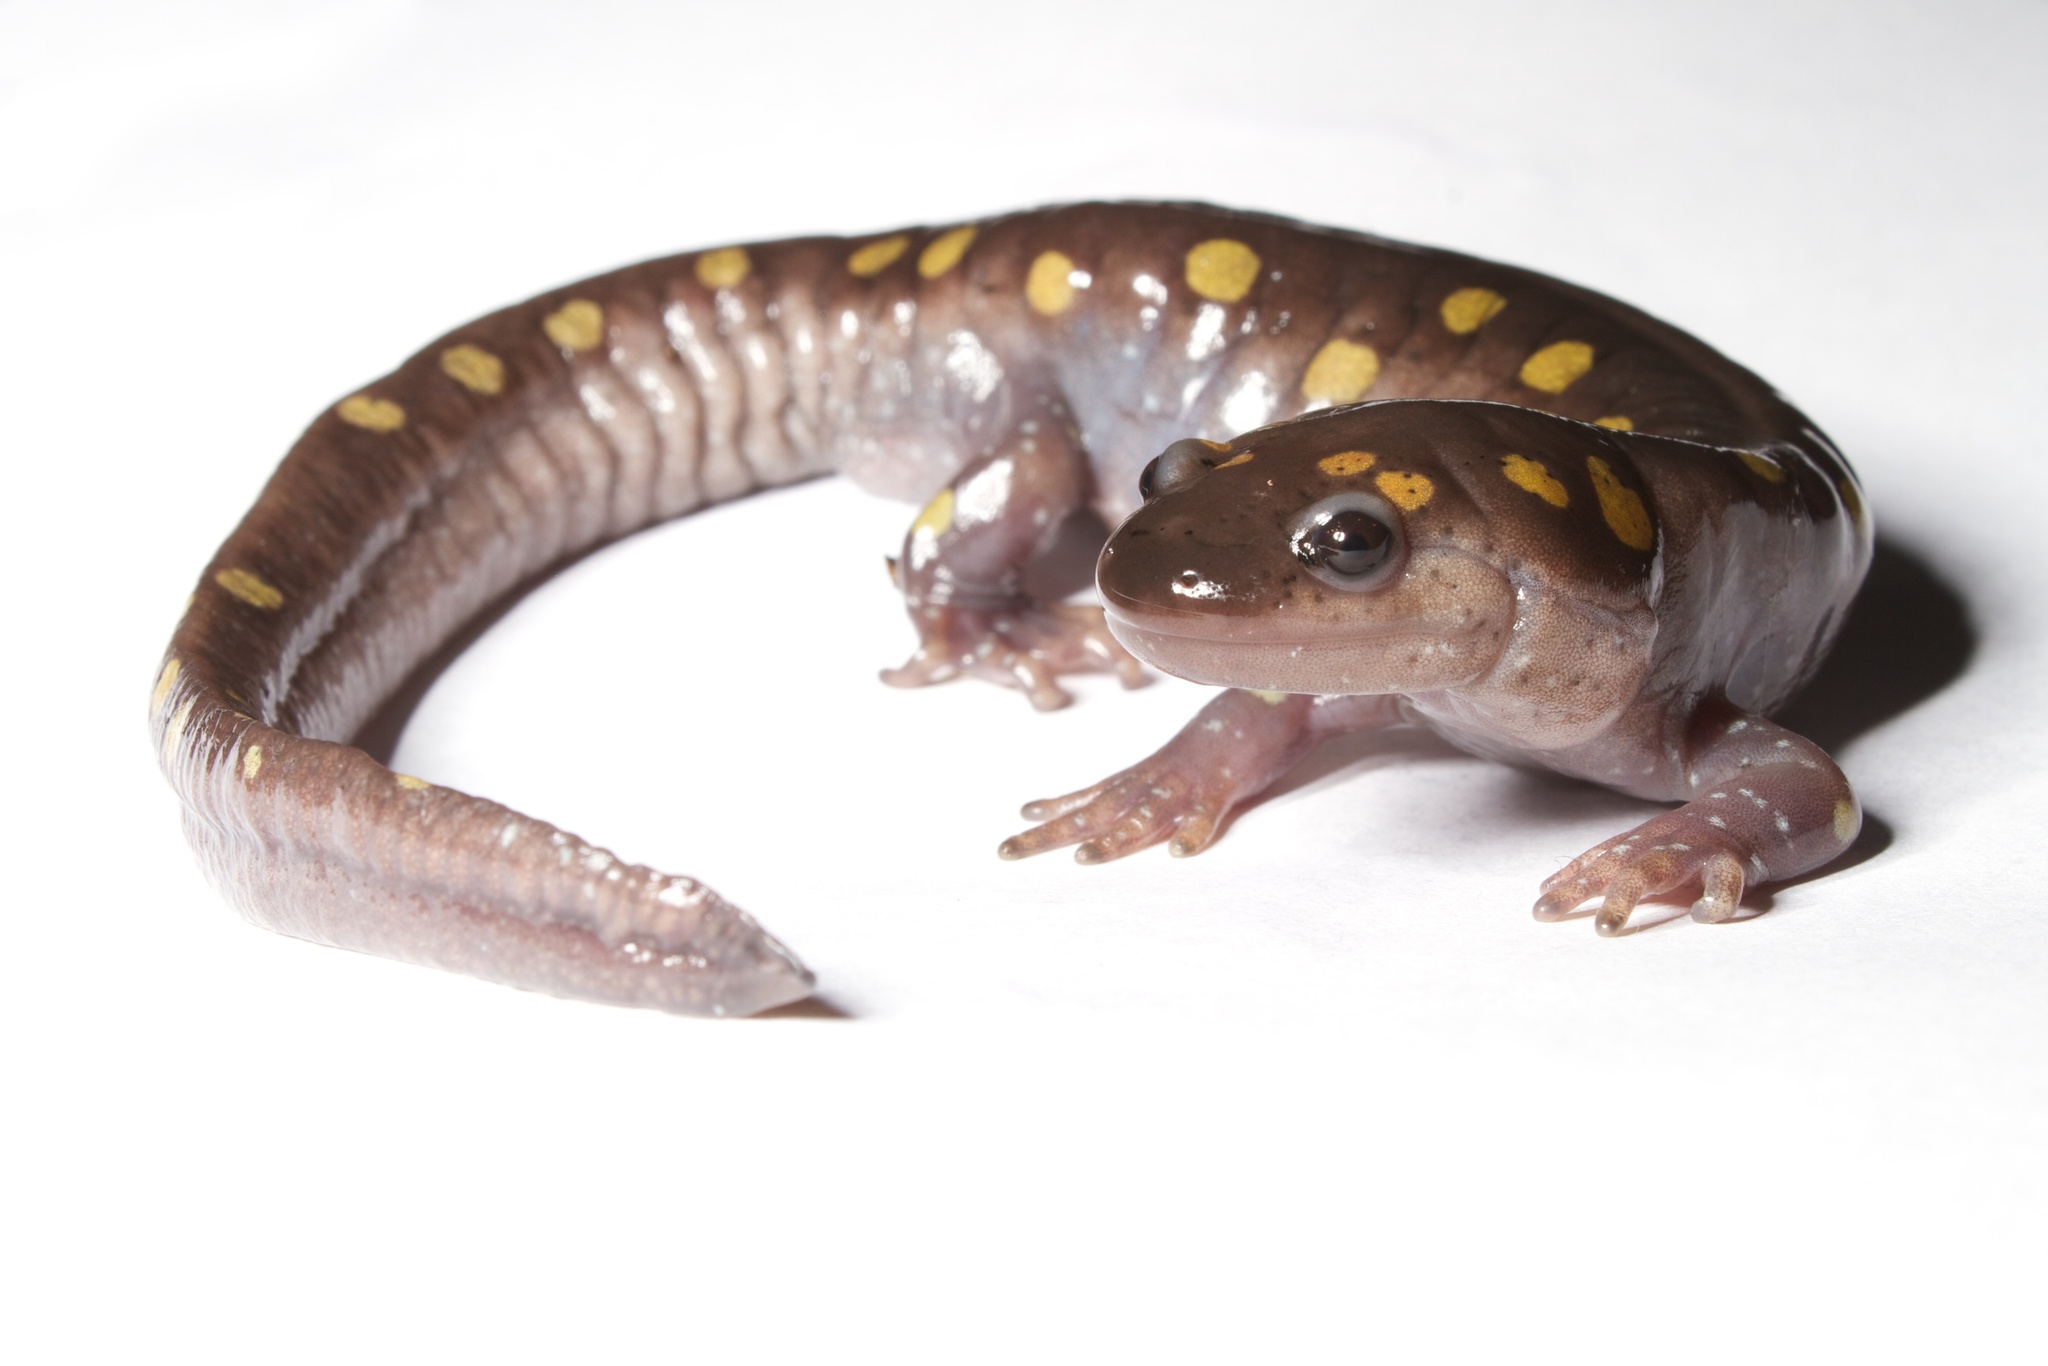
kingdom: Animalia
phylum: Chordata
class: Amphibia
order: Caudata
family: Ambystomatidae
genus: Ambystoma
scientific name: Ambystoma maculatum
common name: Spotted salamander
